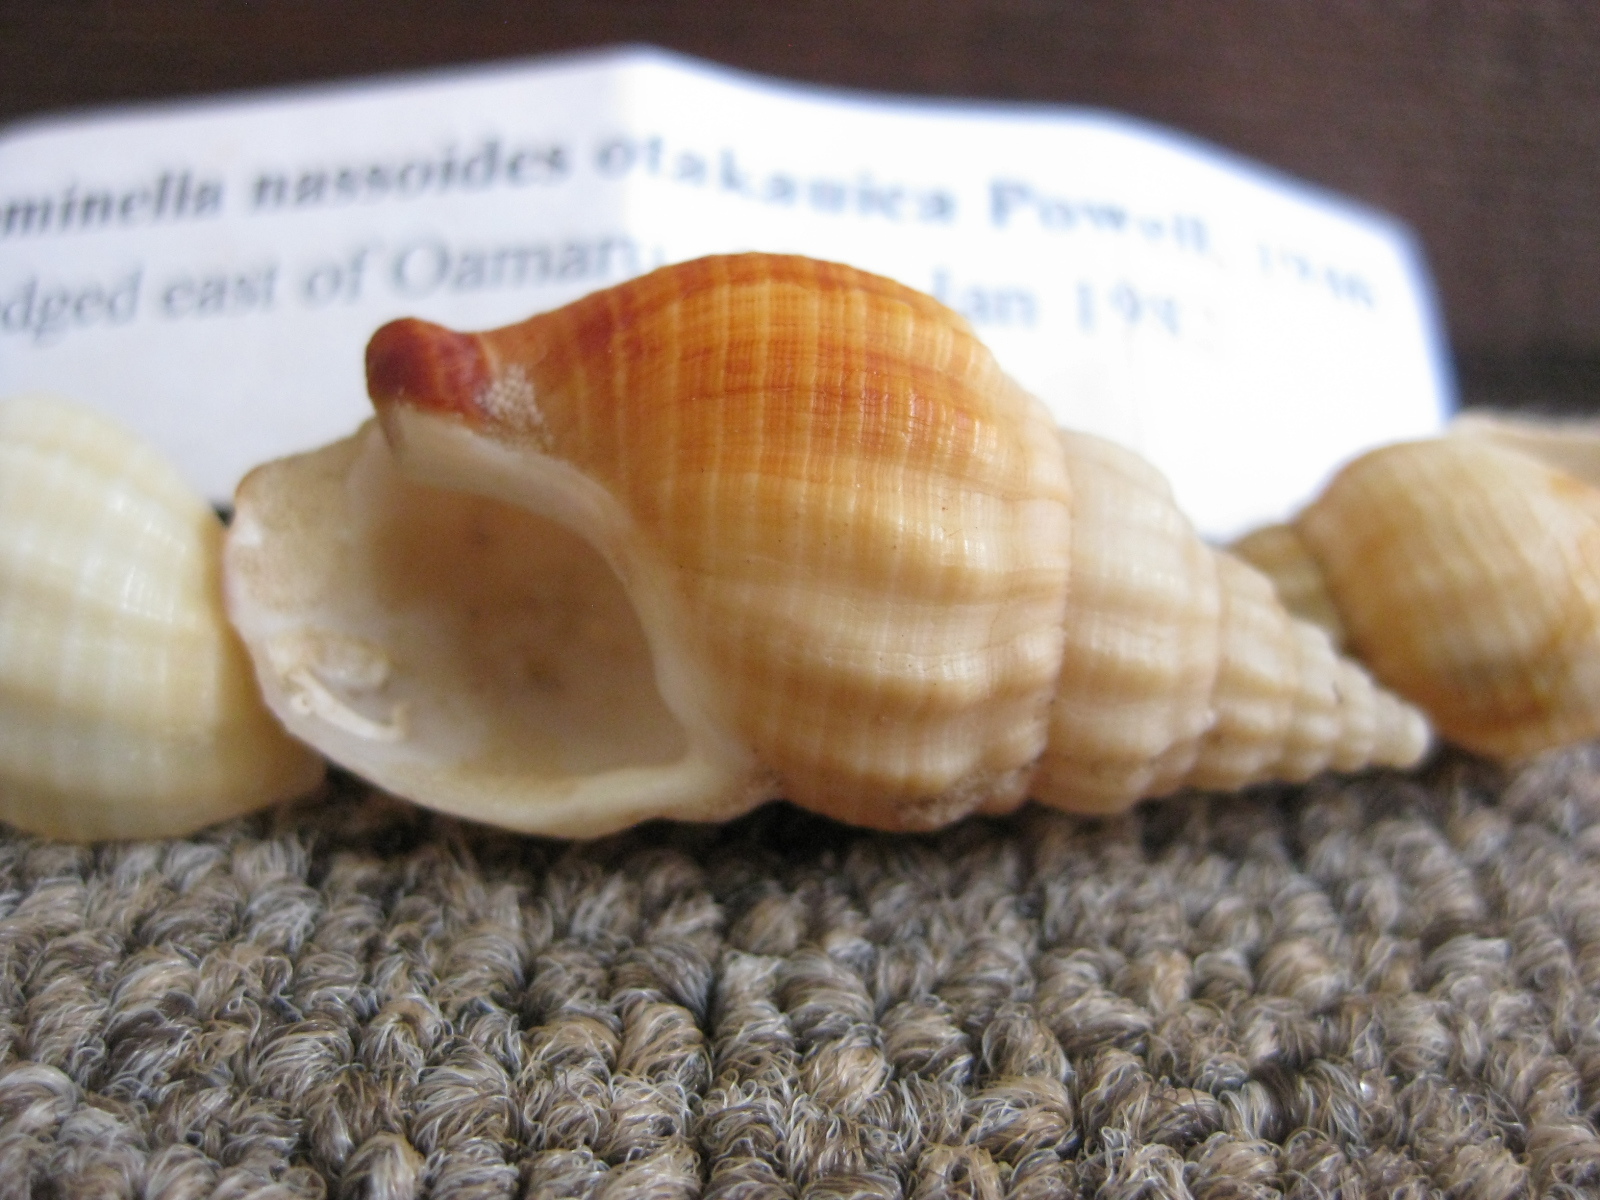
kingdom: Animalia
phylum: Mollusca
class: Gastropoda
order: Neogastropoda
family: Cominellidae
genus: Cominella
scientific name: Cominella nassoides
